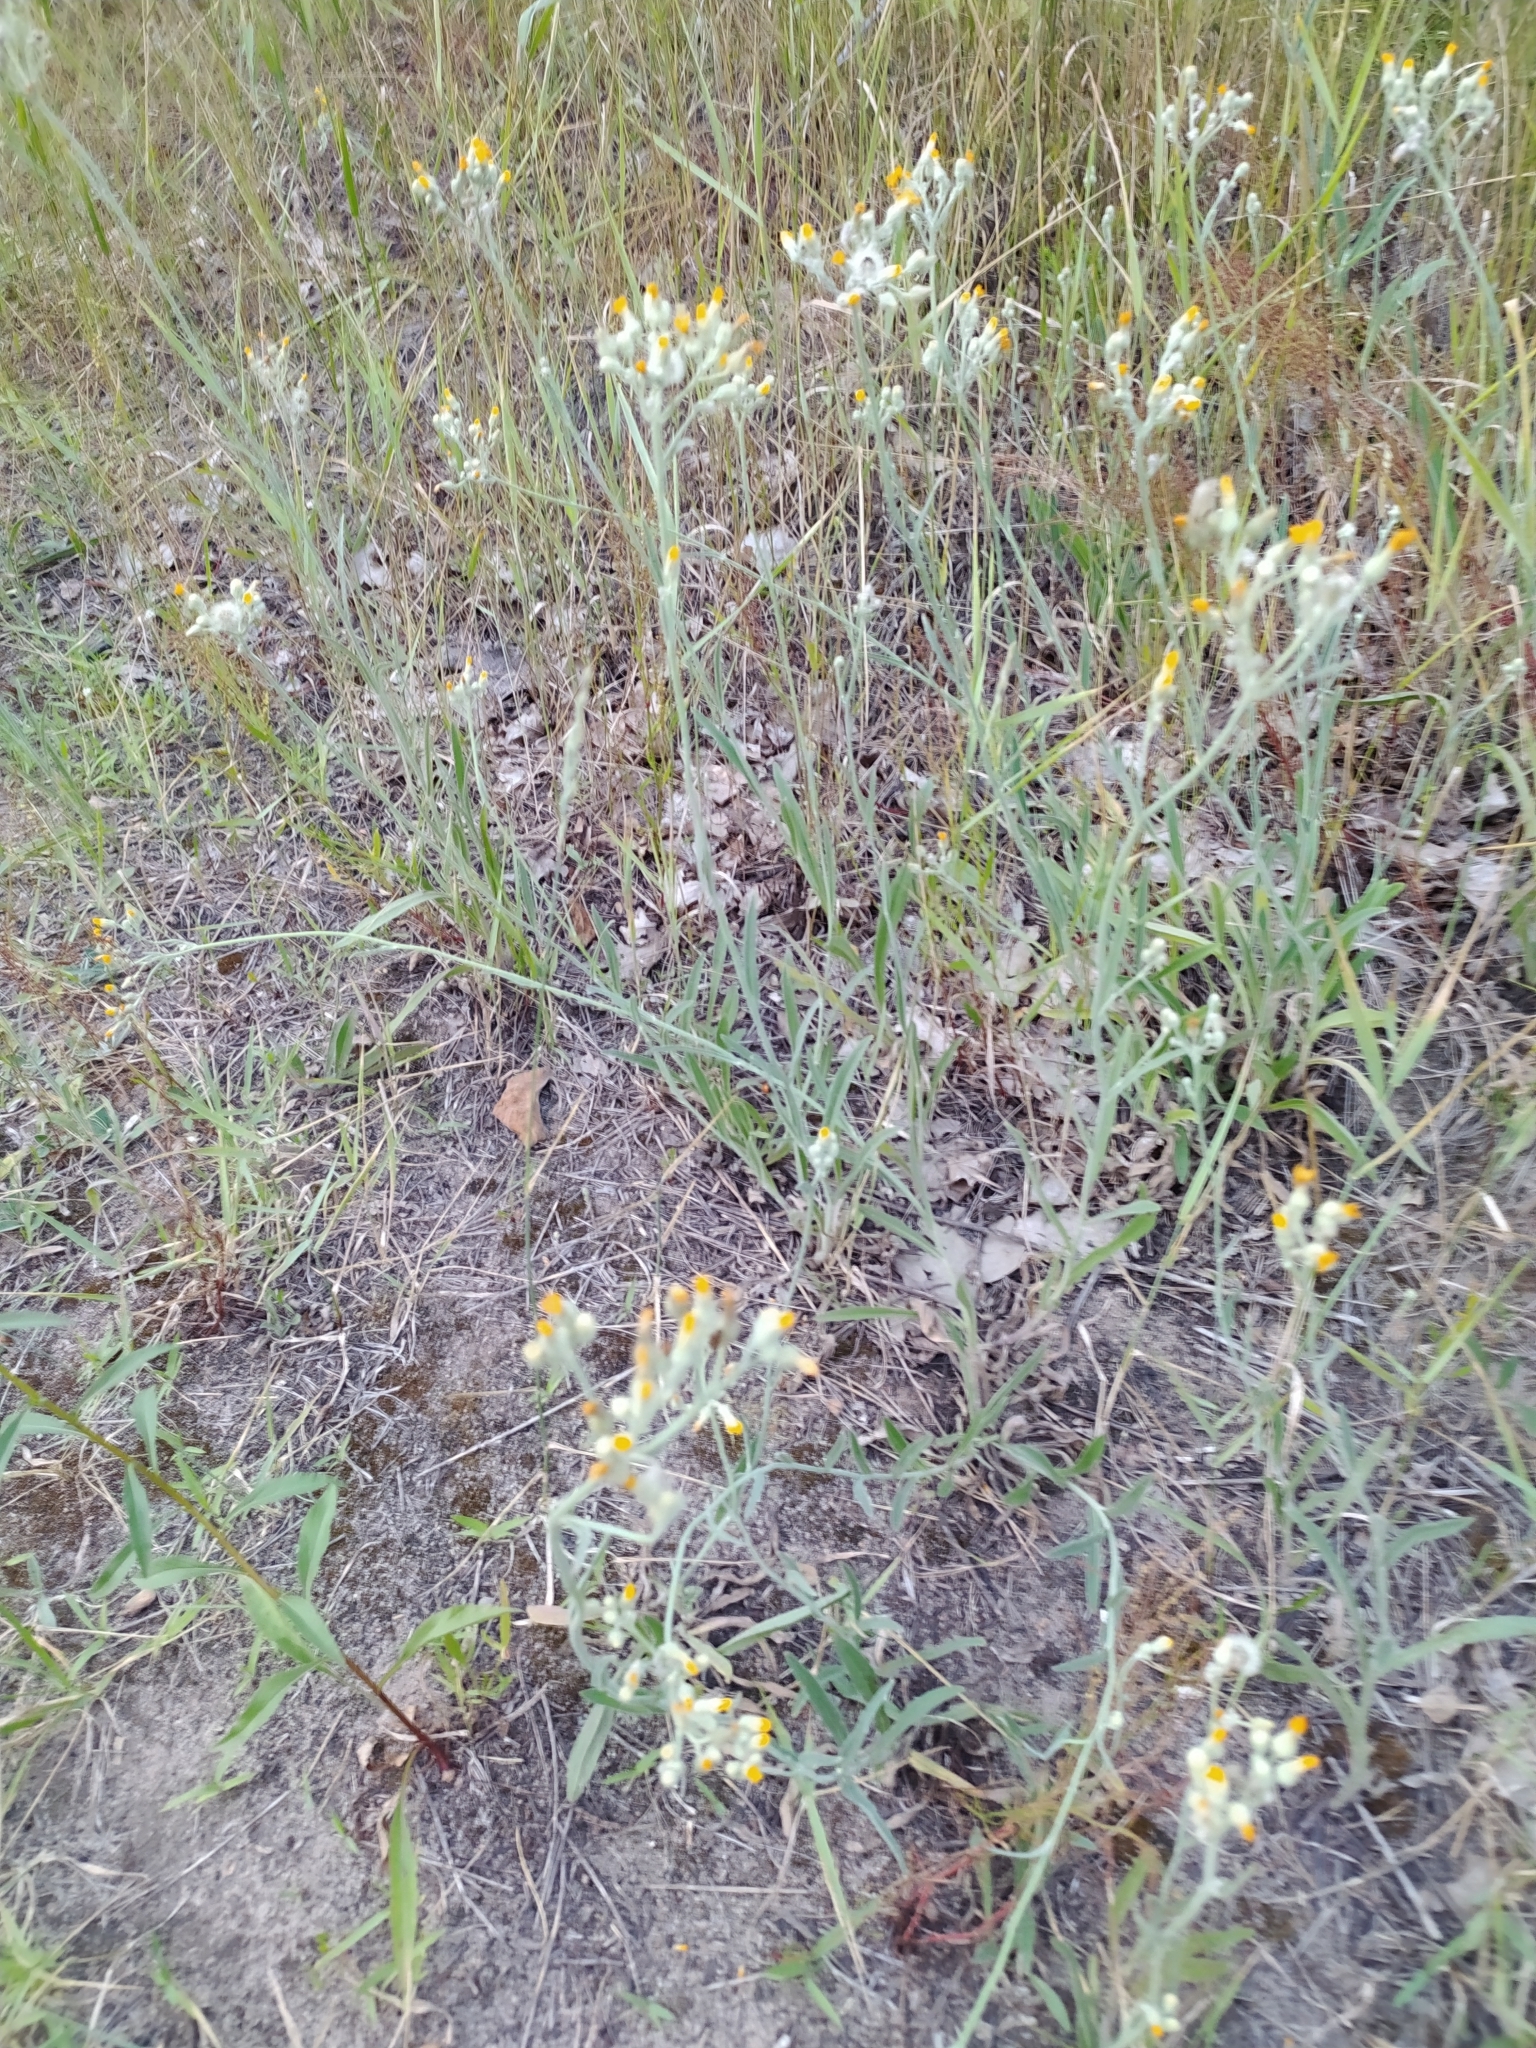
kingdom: Plantae
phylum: Tracheophyta
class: Magnoliopsida
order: Asterales
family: Asteraceae
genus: Pilosella
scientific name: Pilosella echioides
